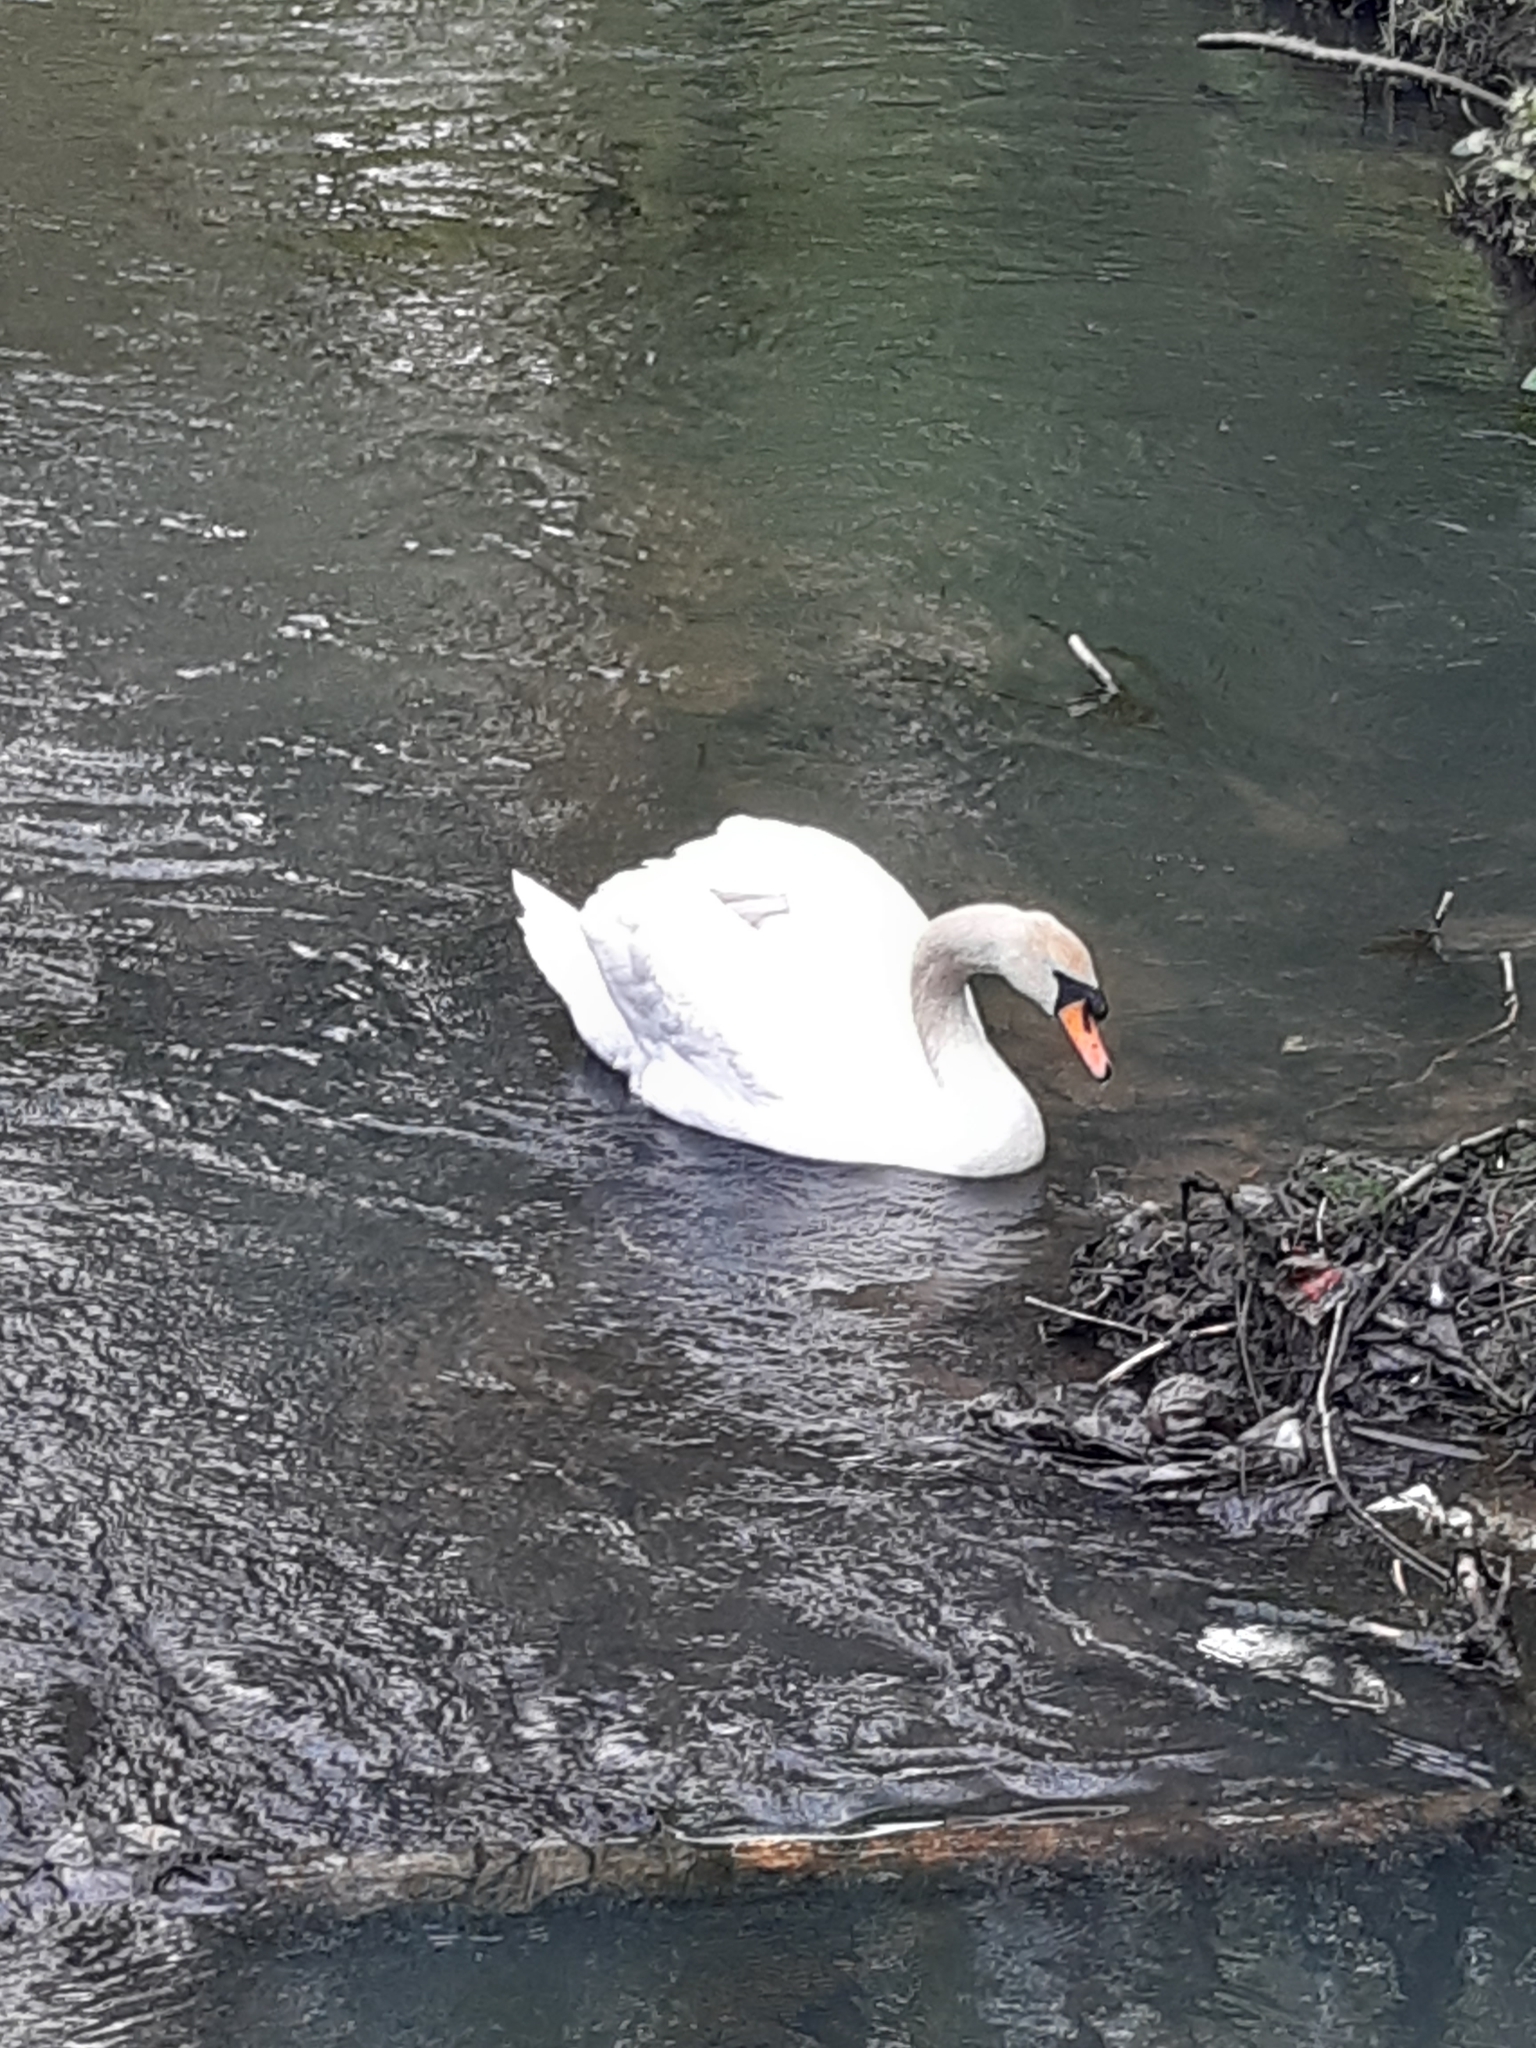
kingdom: Animalia
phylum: Chordata
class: Aves
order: Anseriformes
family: Anatidae
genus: Cygnus
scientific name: Cygnus olor
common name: Mute swan
